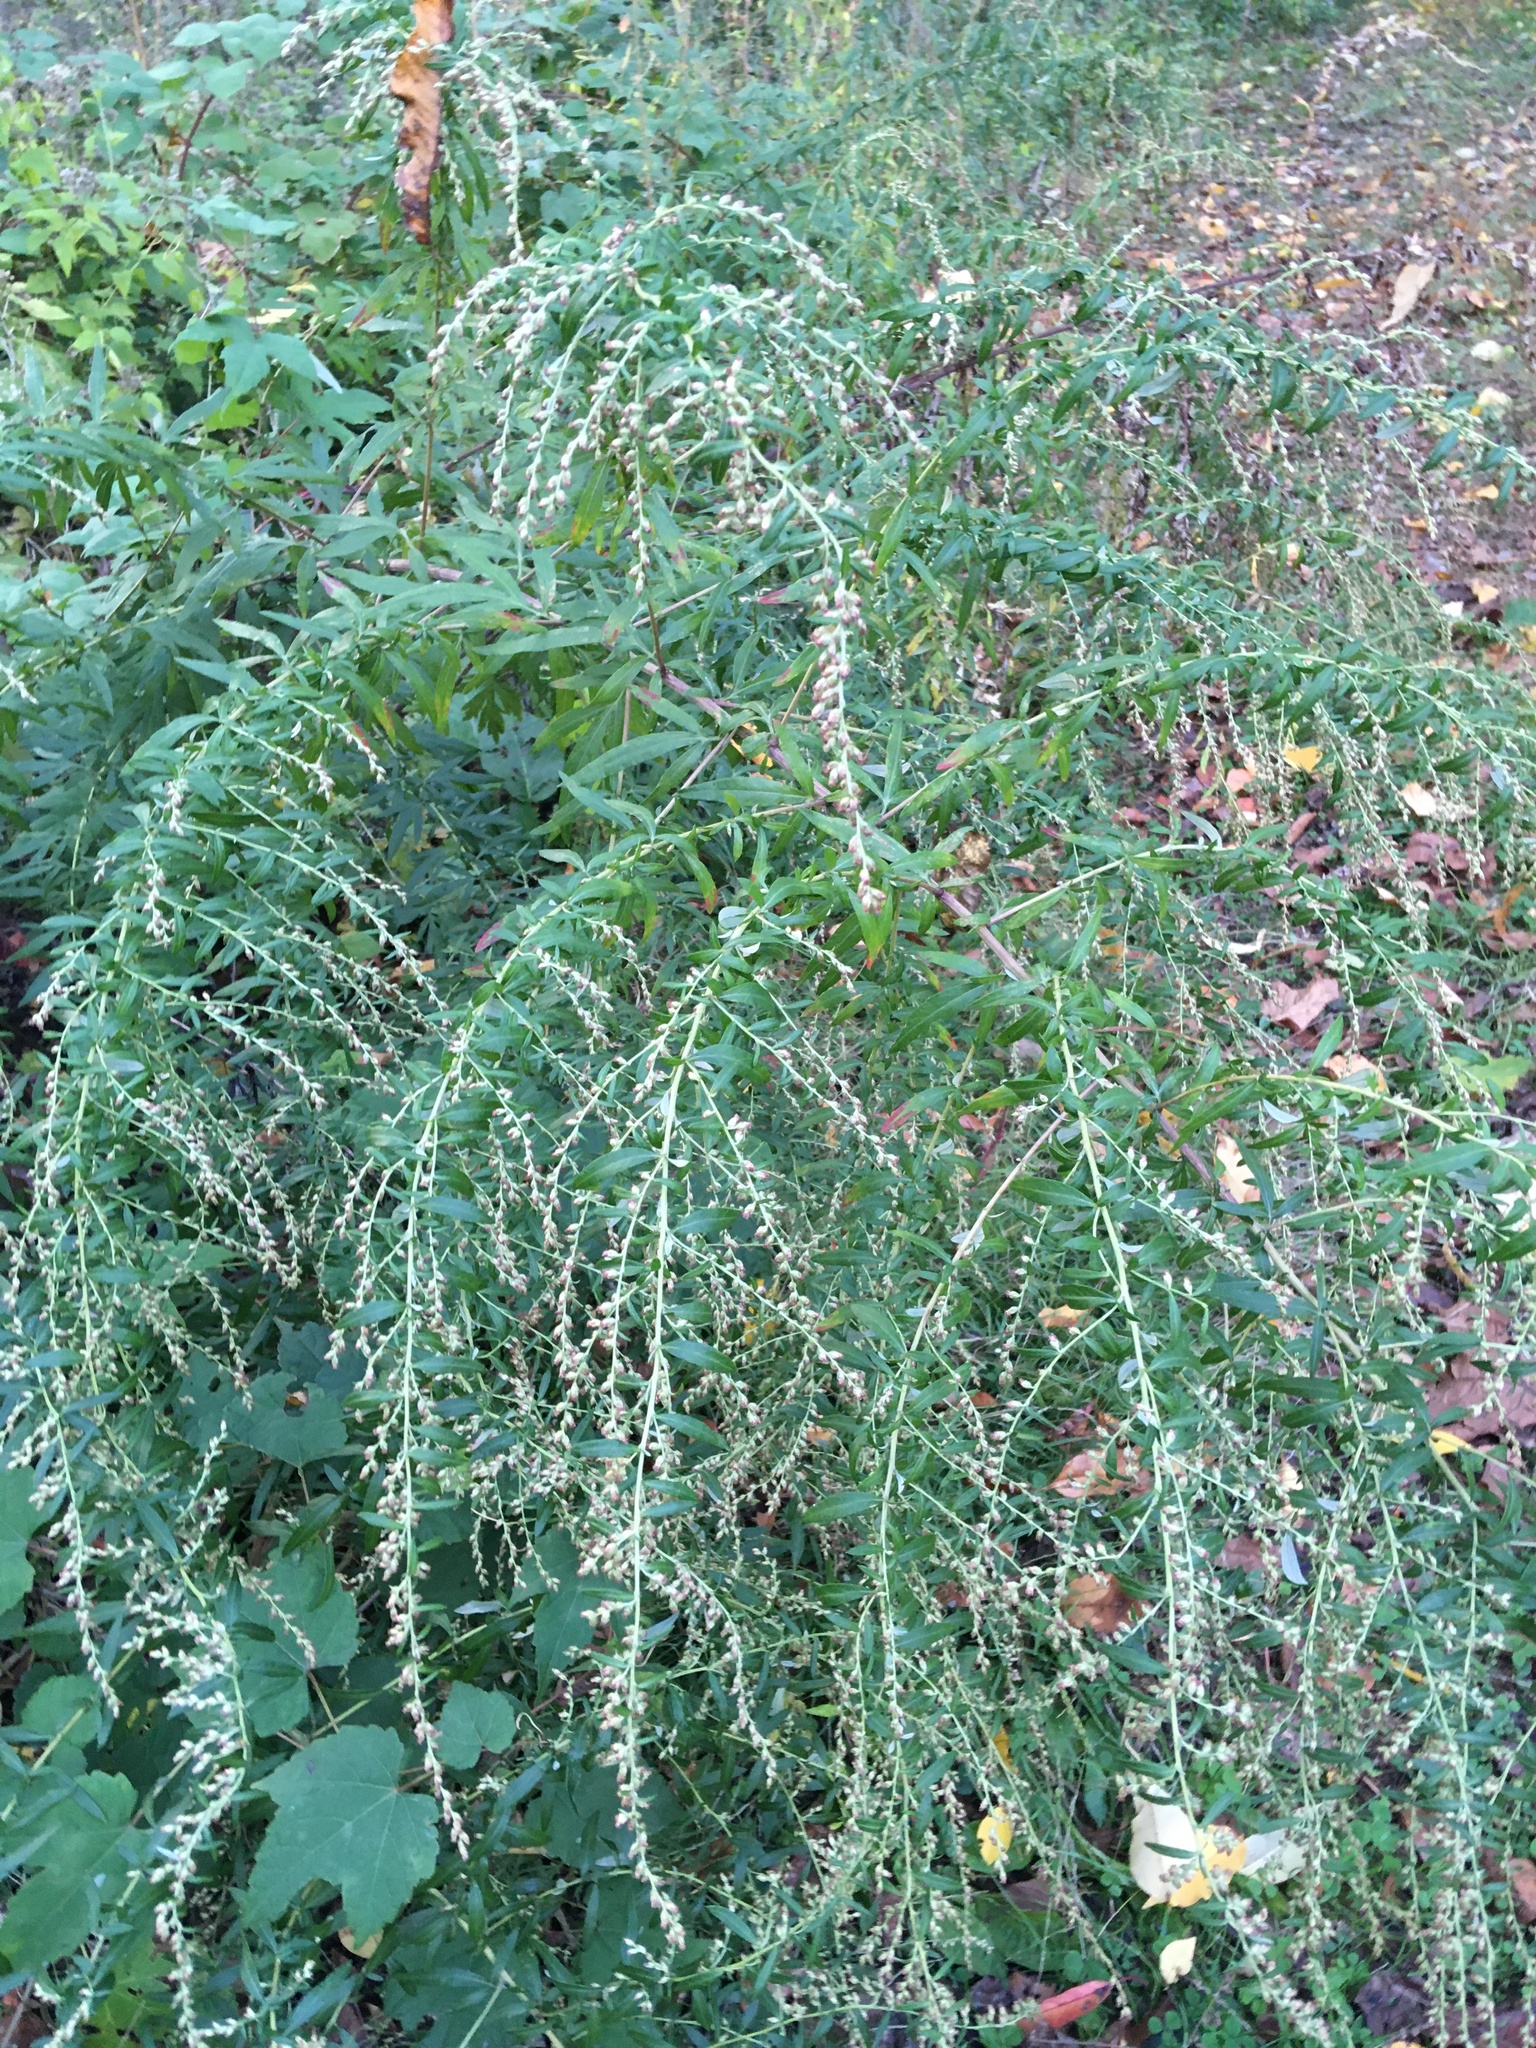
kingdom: Plantae
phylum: Tracheophyta
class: Magnoliopsida
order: Asterales
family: Asteraceae
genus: Artemisia
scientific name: Artemisia vulgaris
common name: Mugwort
